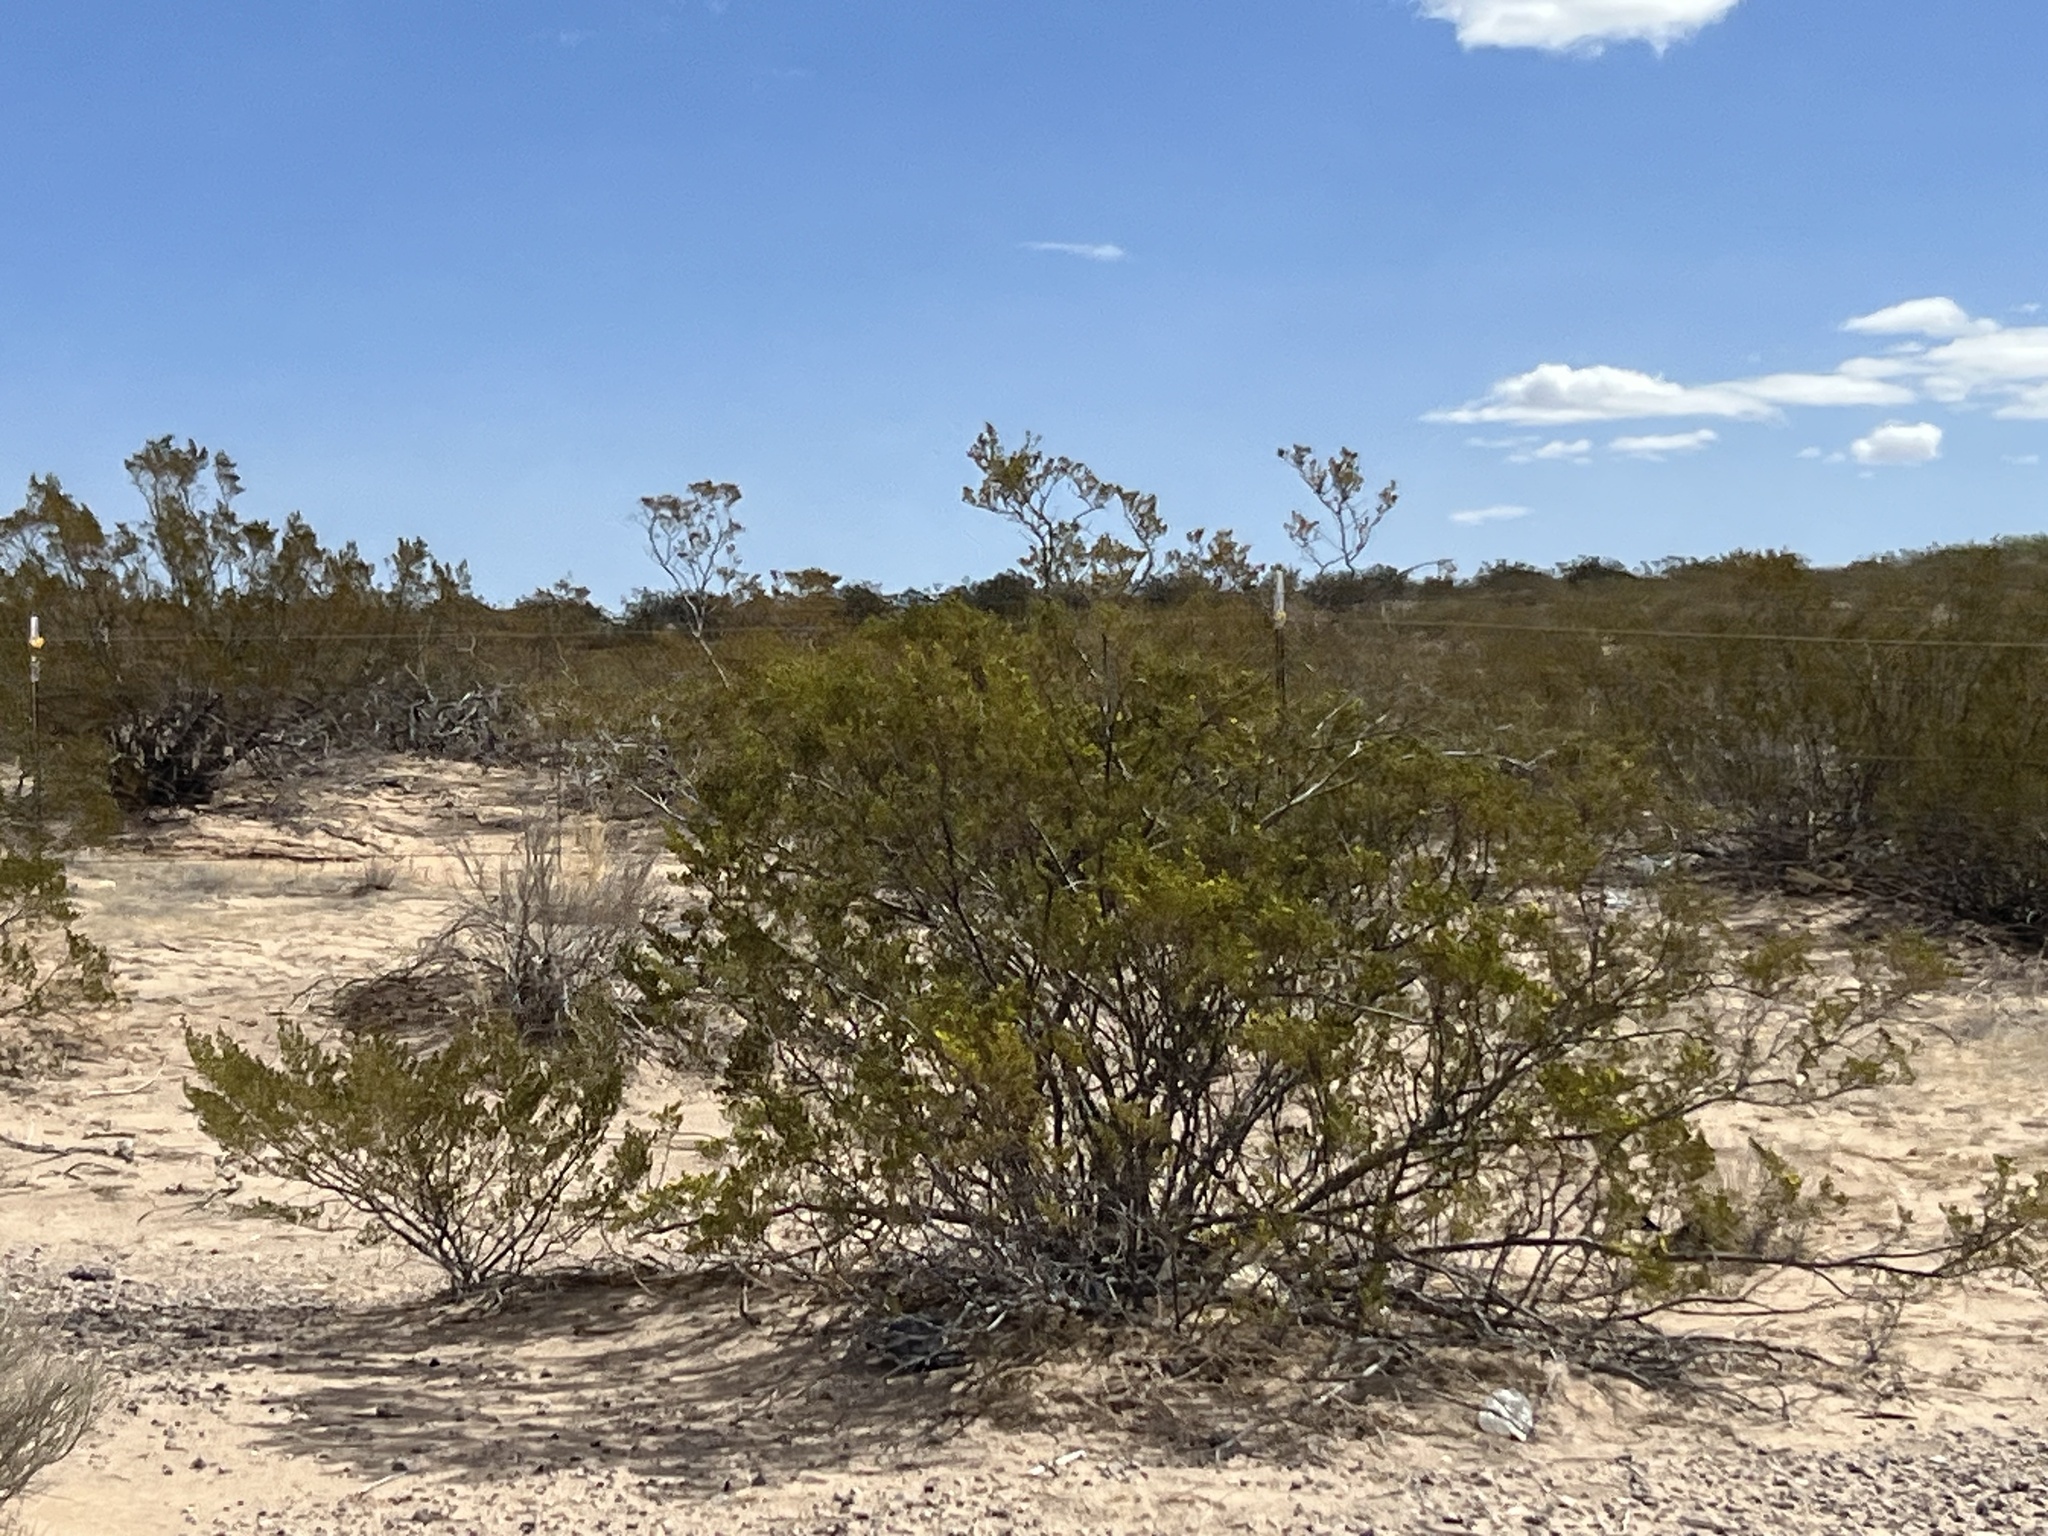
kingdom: Plantae
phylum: Tracheophyta
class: Magnoliopsida
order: Zygophyllales
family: Zygophyllaceae
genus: Larrea
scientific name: Larrea tridentata
